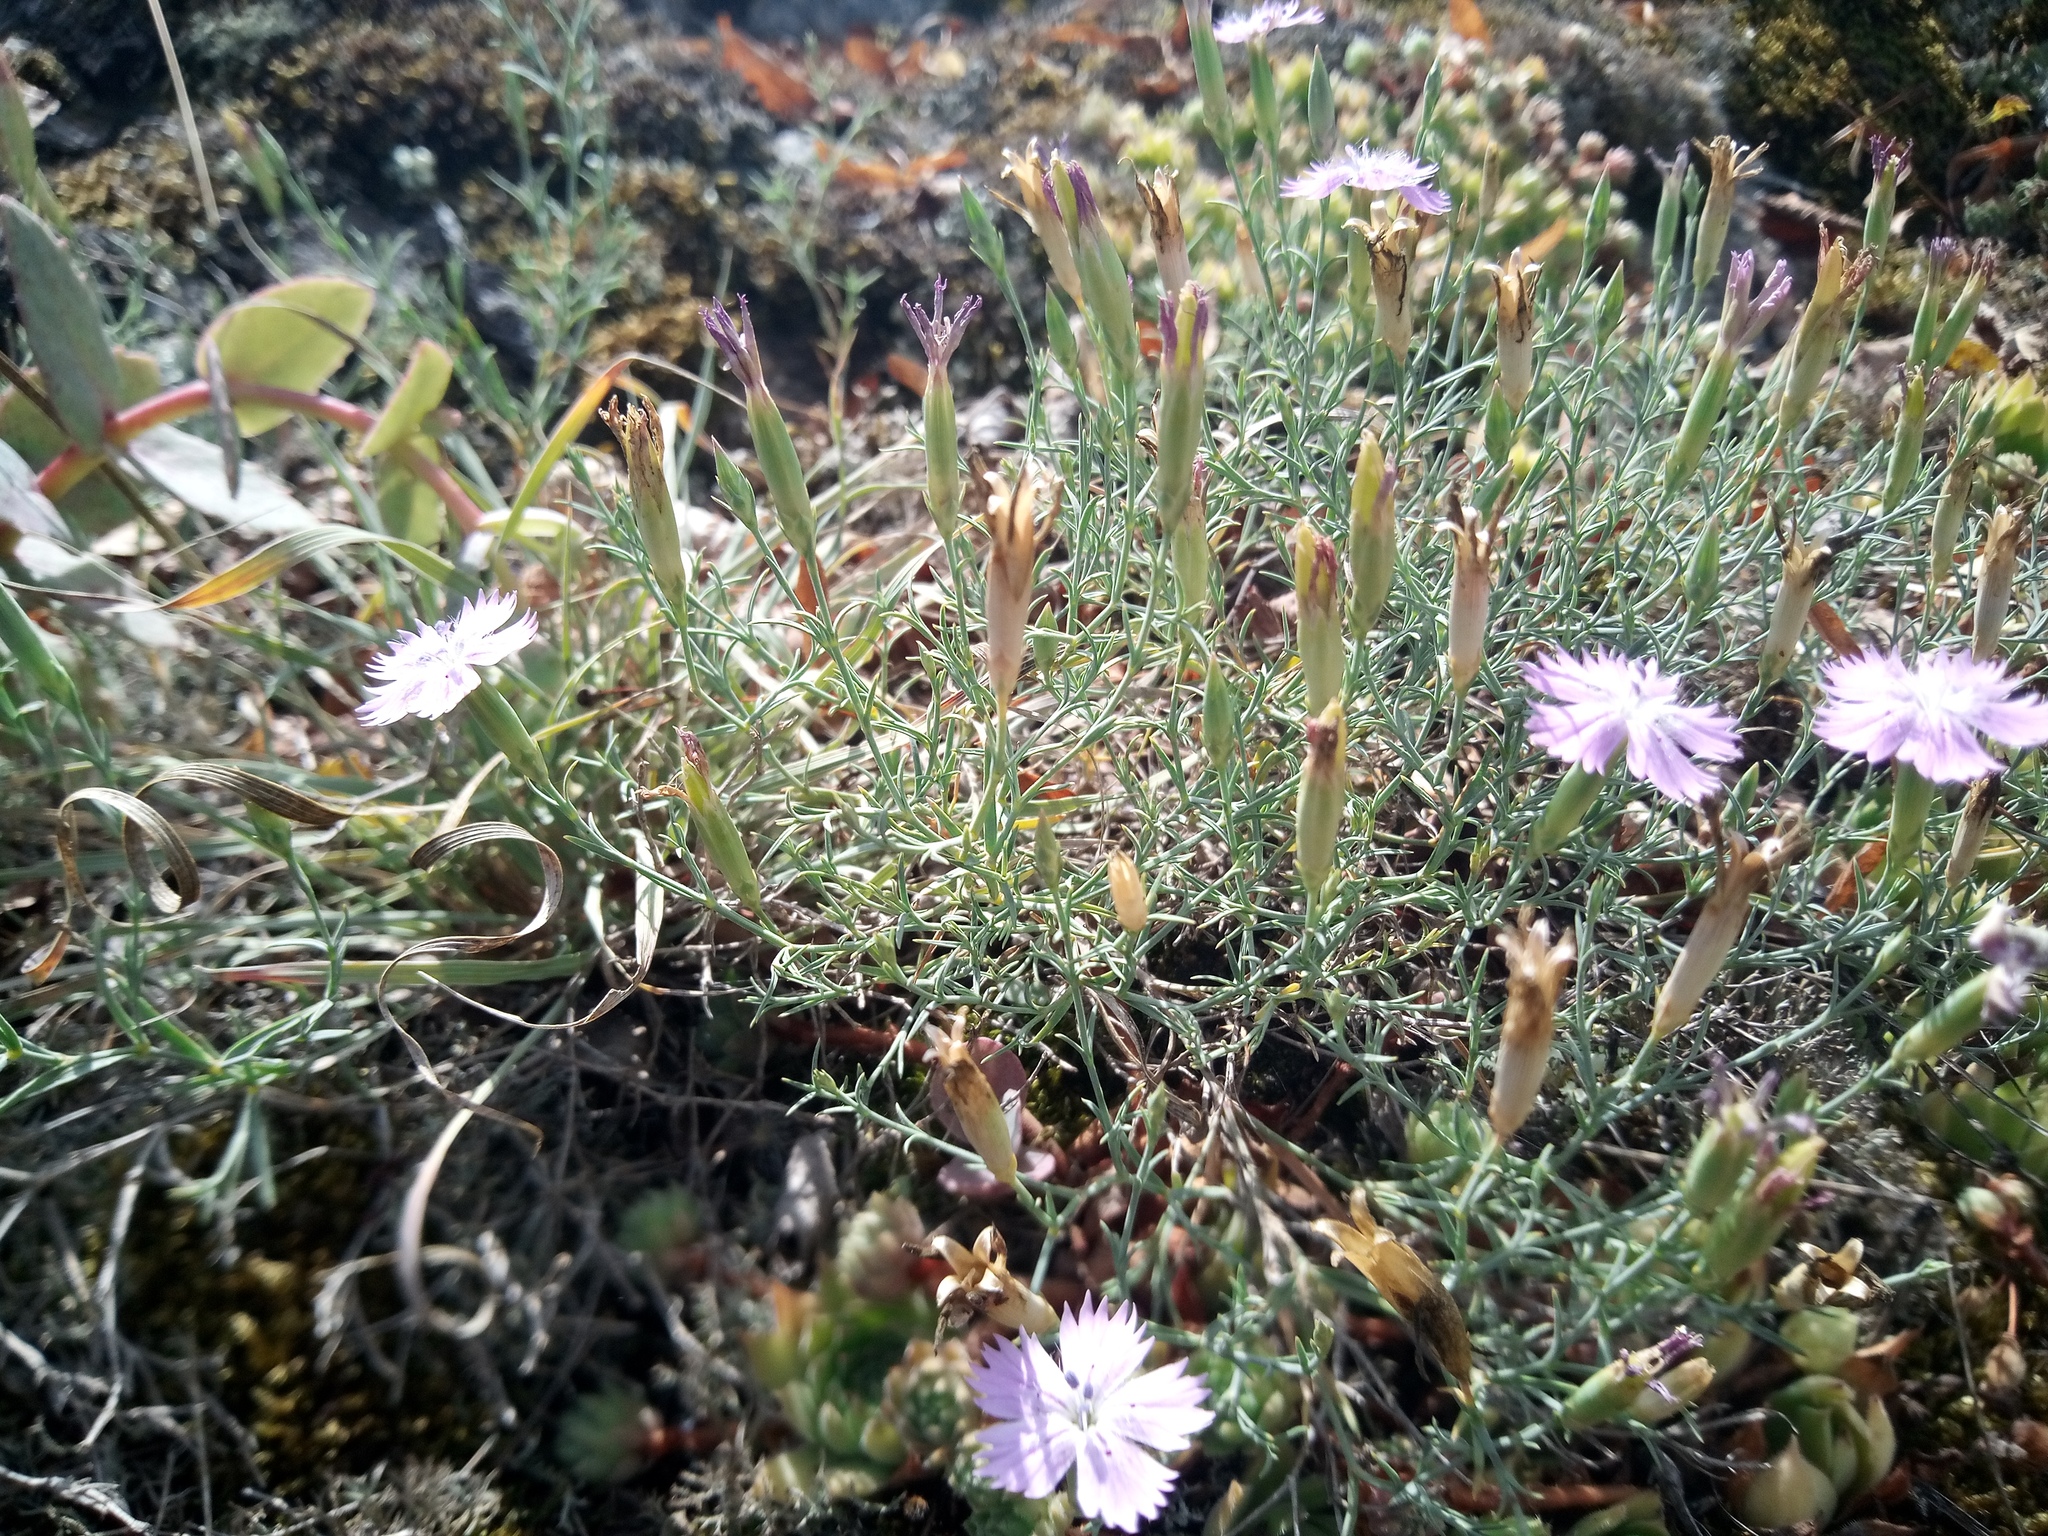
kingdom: Plantae
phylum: Tracheophyta
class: Magnoliopsida
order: Caryophyllales
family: Caryophyllaceae
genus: Dianthus
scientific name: Dianthus hypanicus
